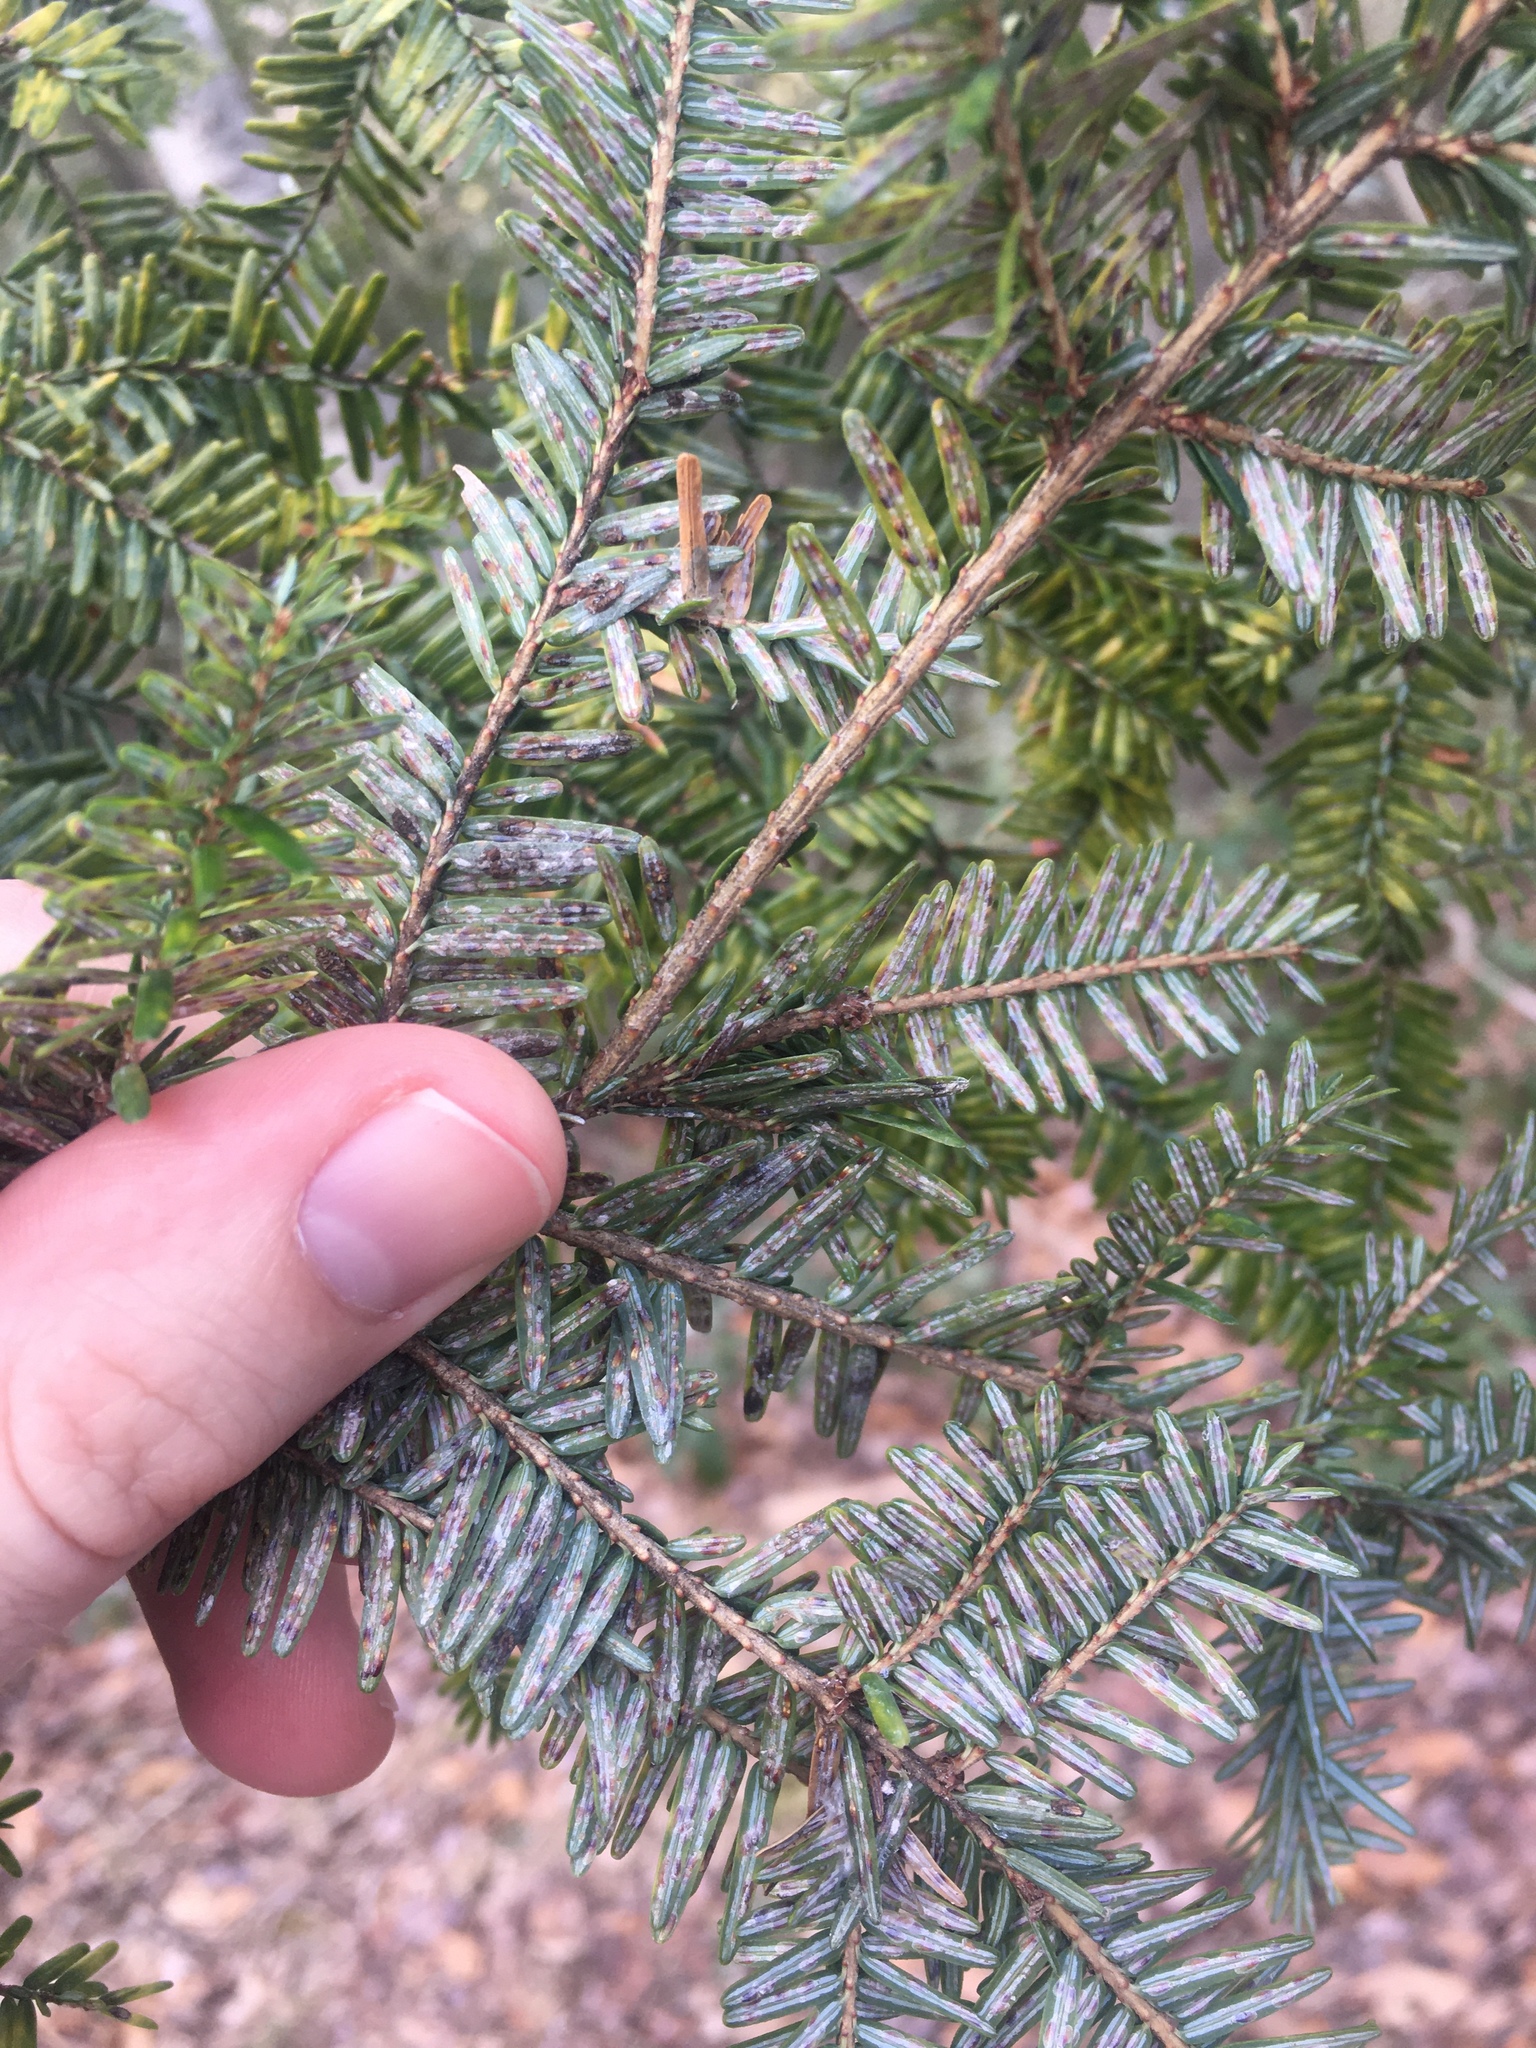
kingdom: Animalia
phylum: Arthropoda
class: Insecta
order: Hemiptera
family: Diaspididae
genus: Fiorinia
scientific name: Fiorinia externa
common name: Elongate hemlock scale
